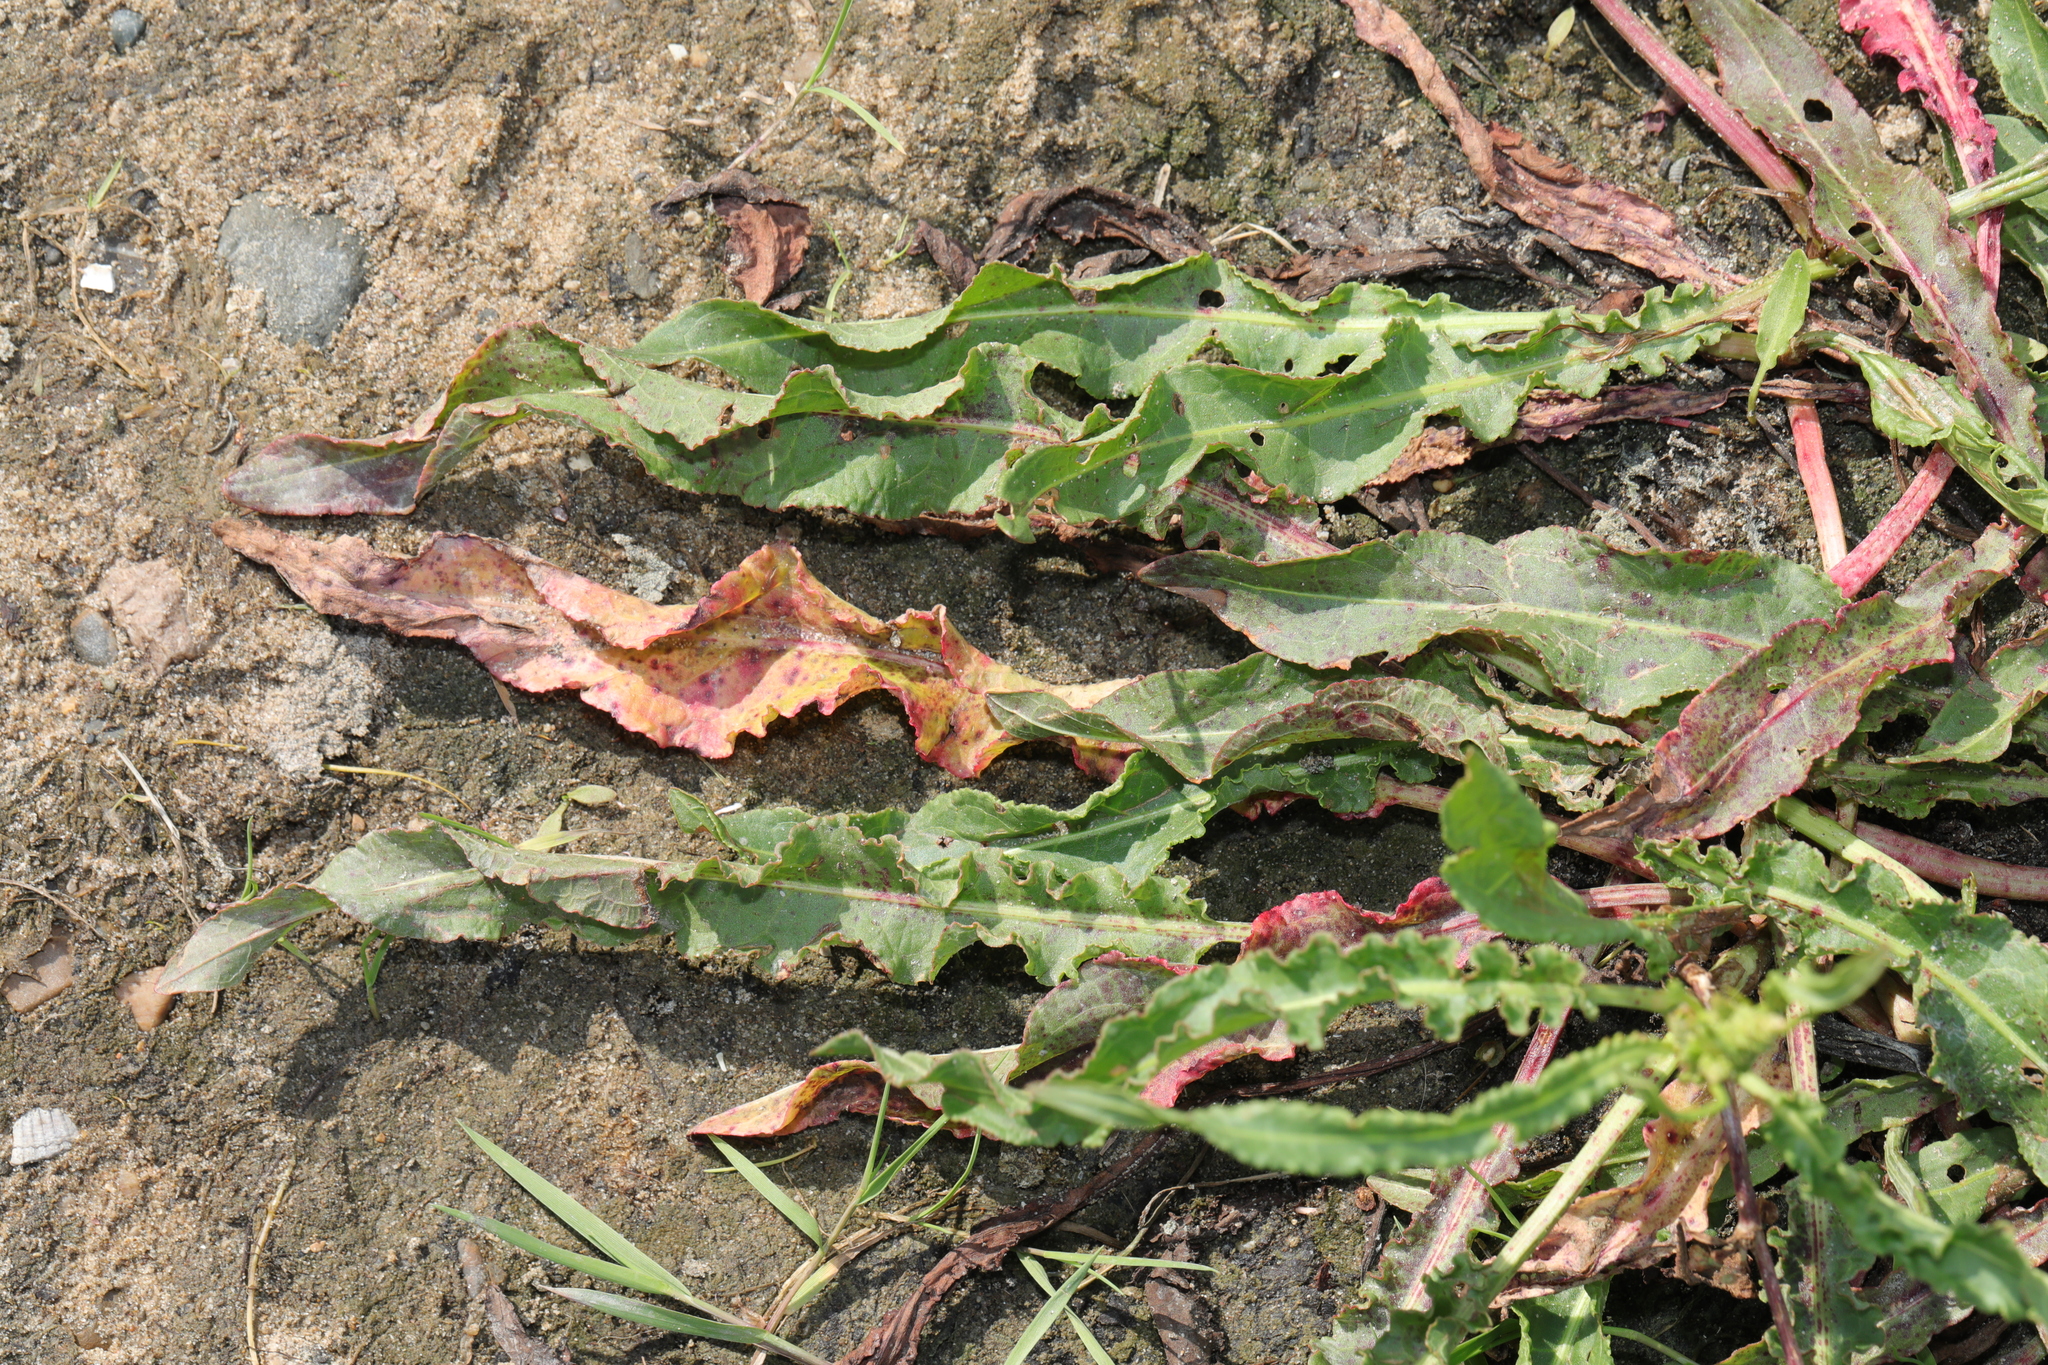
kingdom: Plantae
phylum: Tracheophyta
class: Magnoliopsida
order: Caryophyllales
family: Polygonaceae
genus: Rumex
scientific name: Rumex crispus
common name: Curled dock
